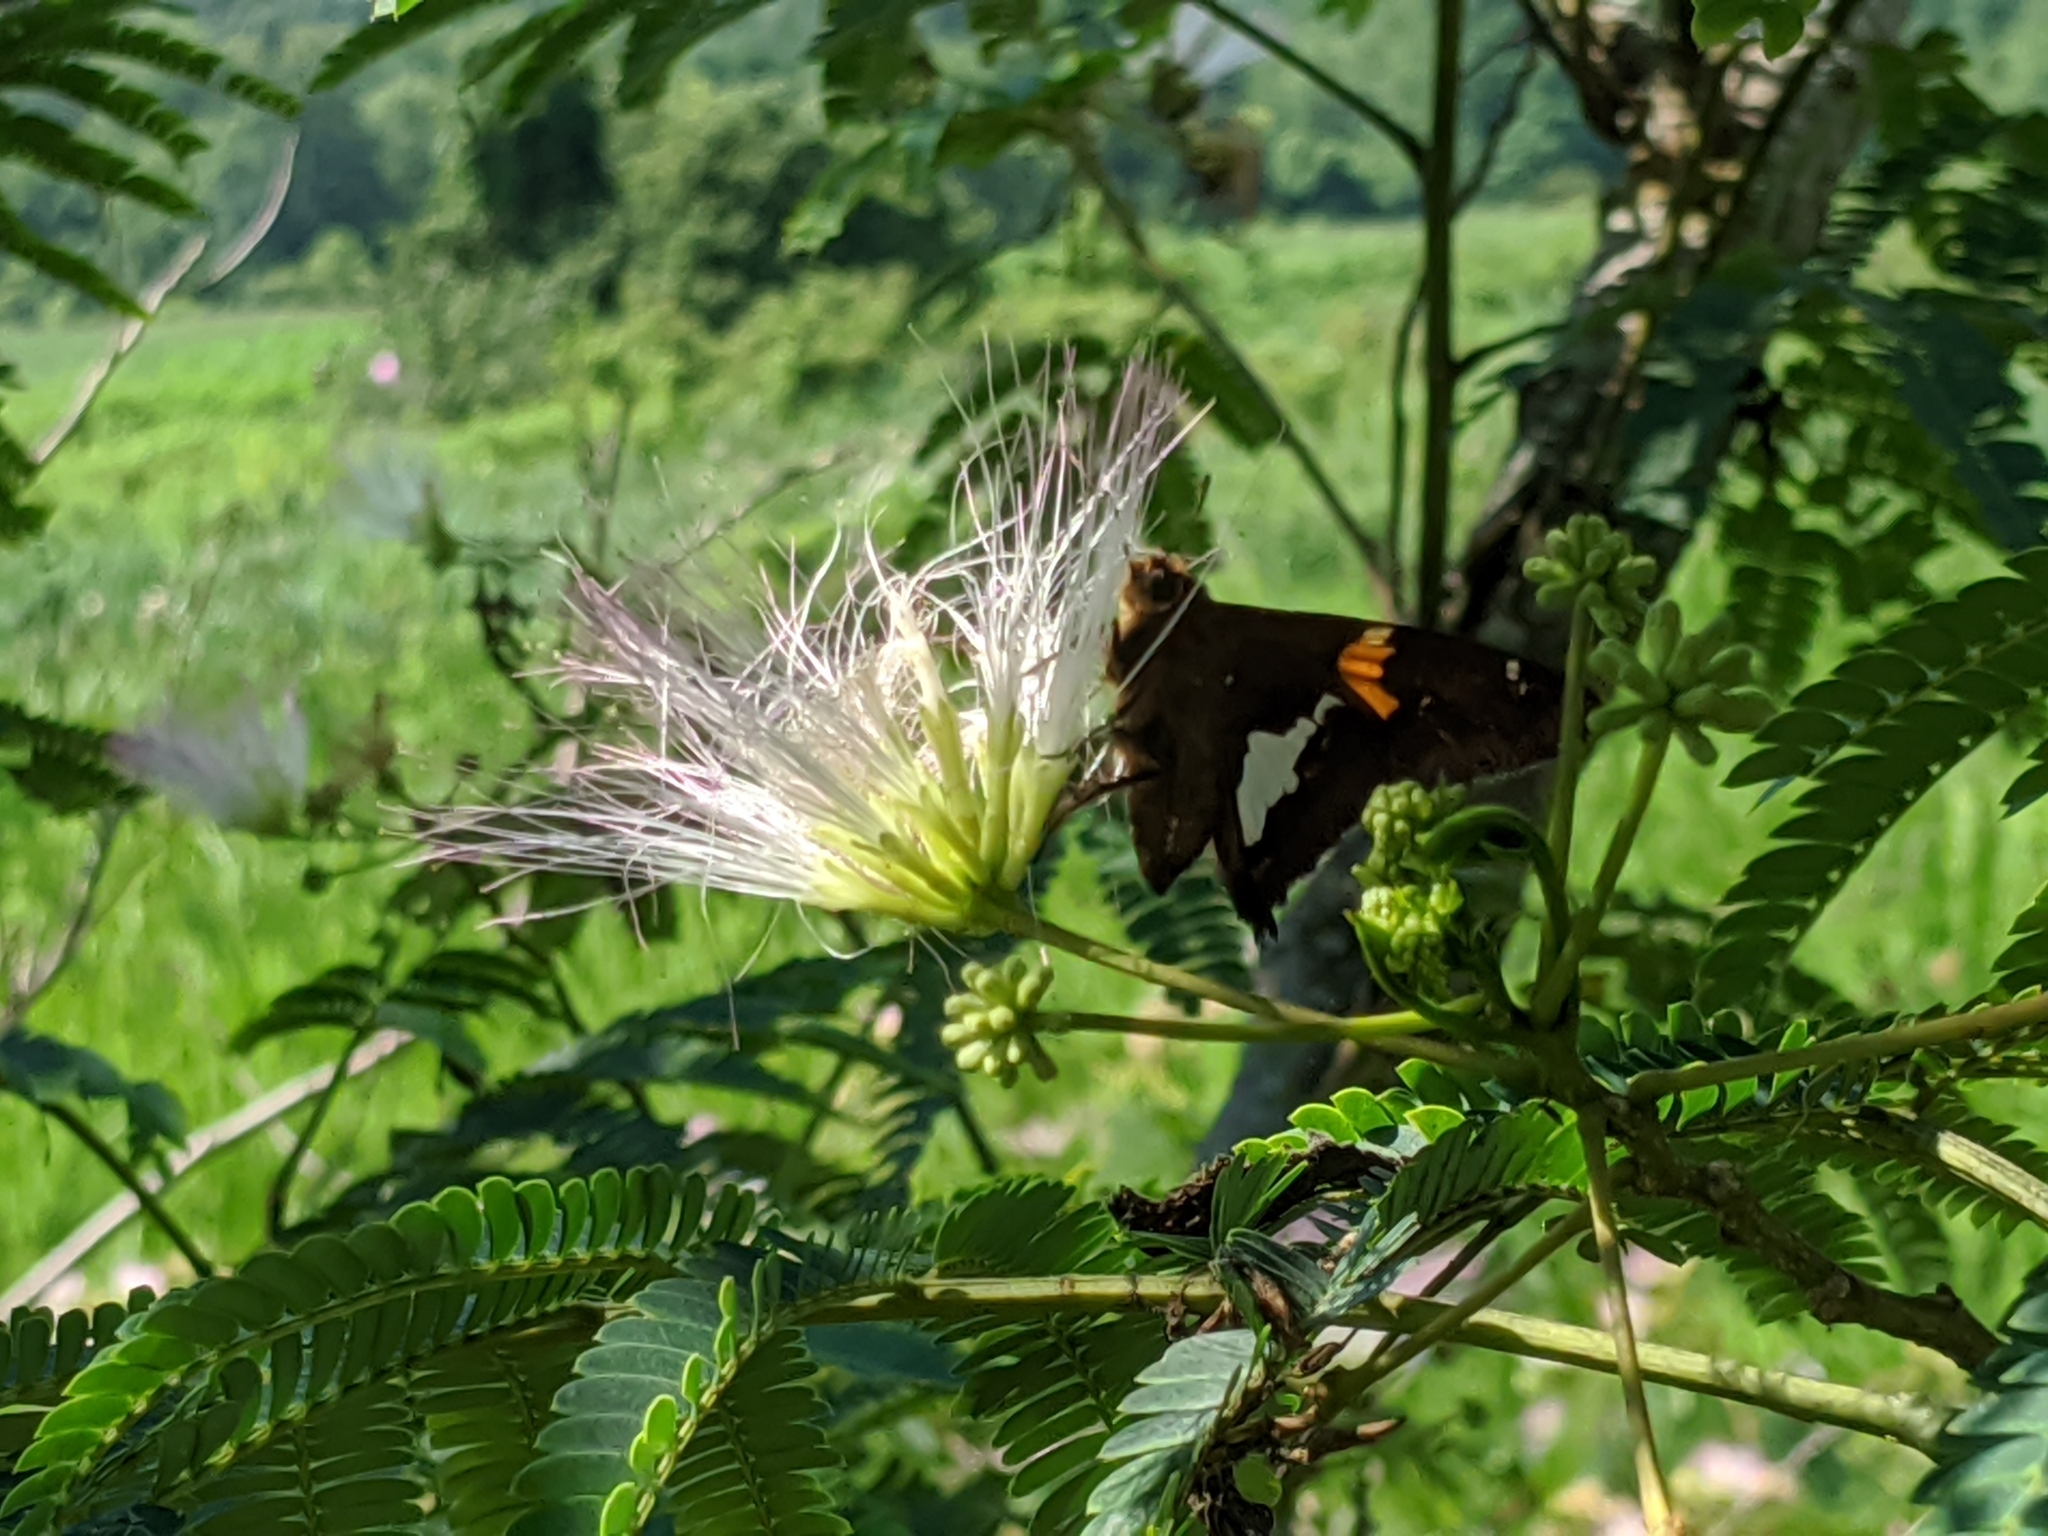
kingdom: Animalia
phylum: Arthropoda
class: Insecta
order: Lepidoptera
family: Hesperiidae
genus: Epargyreus
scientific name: Epargyreus clarus
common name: Silver-spotted skipper
